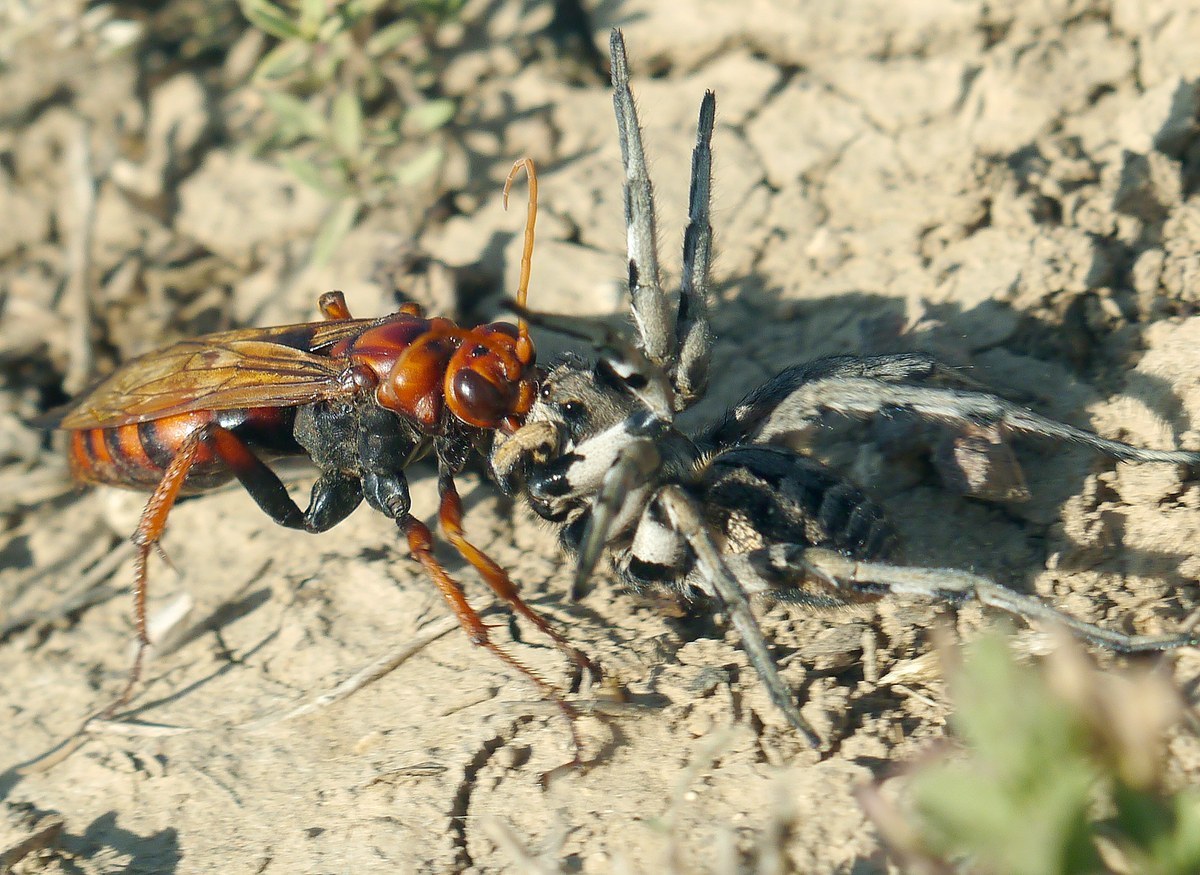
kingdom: Animalia
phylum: Arthropoda
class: Insecta
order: Hymenoptera
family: Pompilidae
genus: Cryptocheilus
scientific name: Cryptocheilus rubellus
